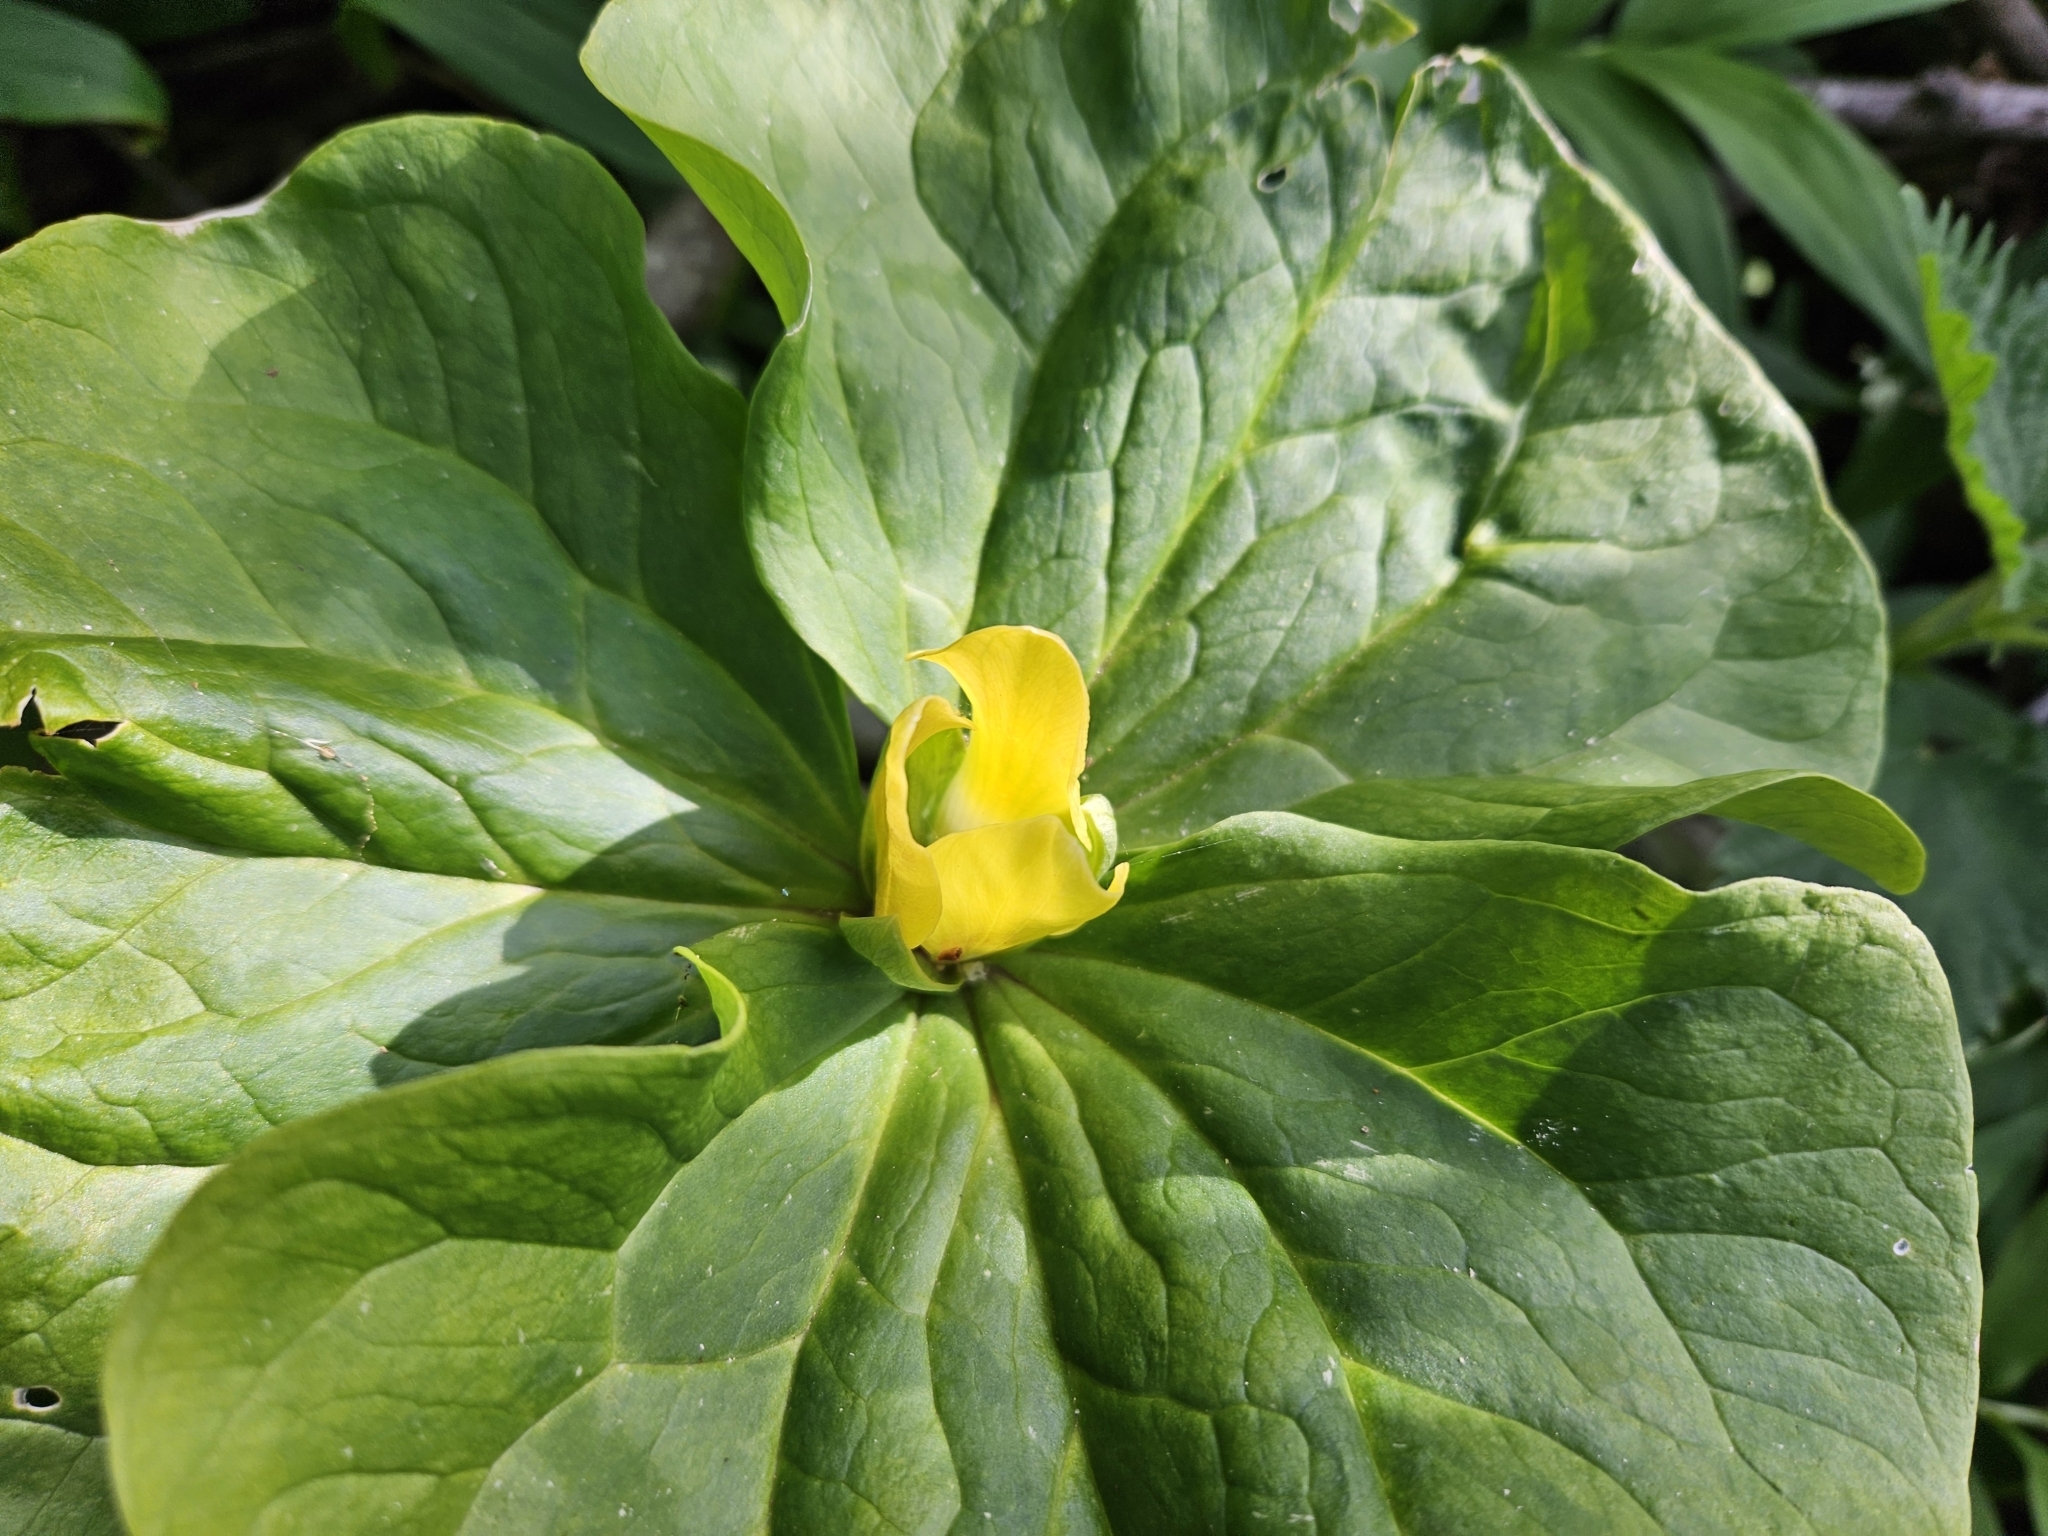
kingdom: Plantae
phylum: Tracheophyta
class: Liliopsida
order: Liliales
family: Melanthiaceae
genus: Trillium
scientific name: Trillium chloropetalum
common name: Giant trillium
